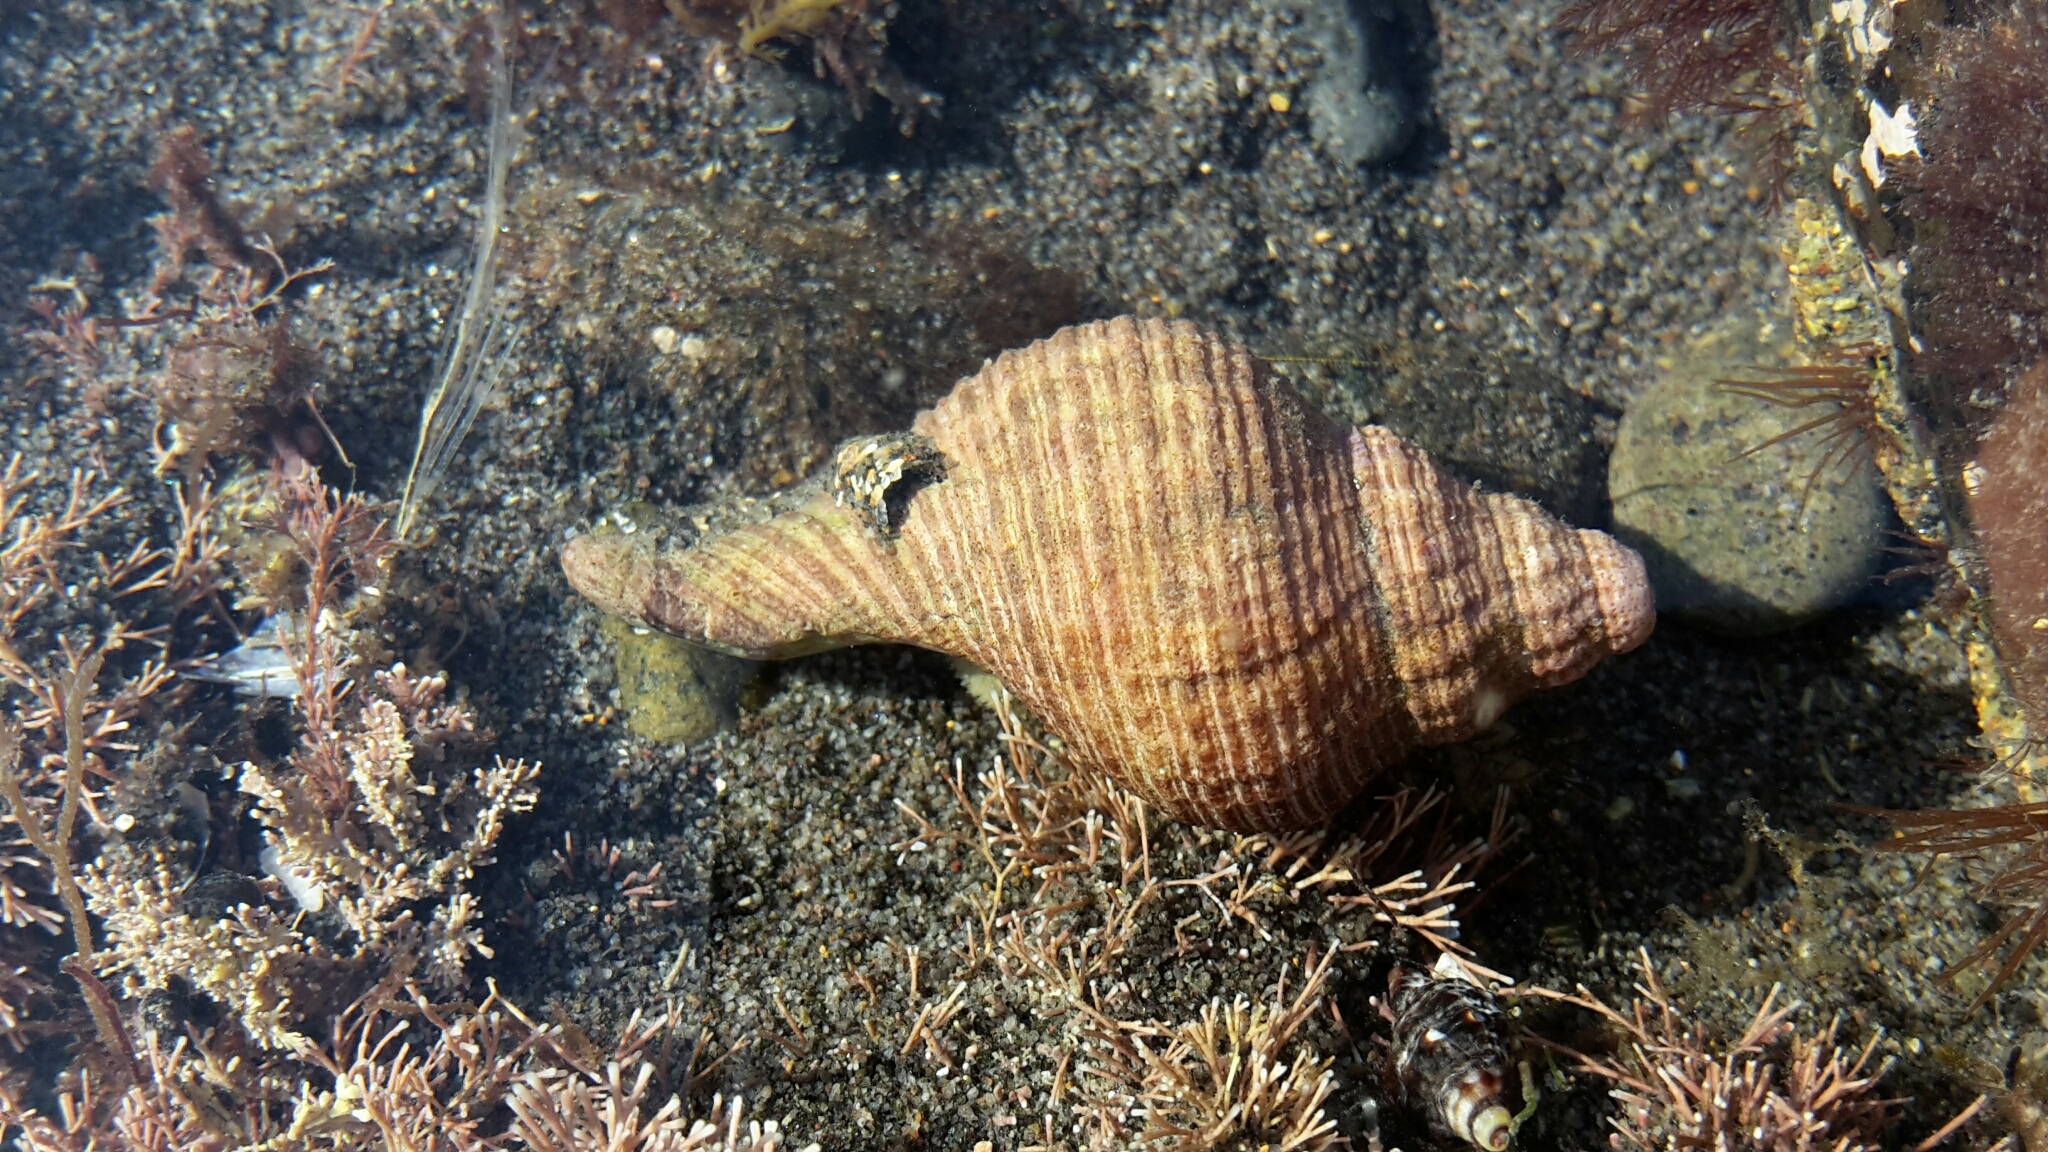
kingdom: Animalia
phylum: Mollusca
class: Gastropoda
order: Neogastropoda
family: Austrosiphonidae
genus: Penion
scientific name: Penion sulcatus
